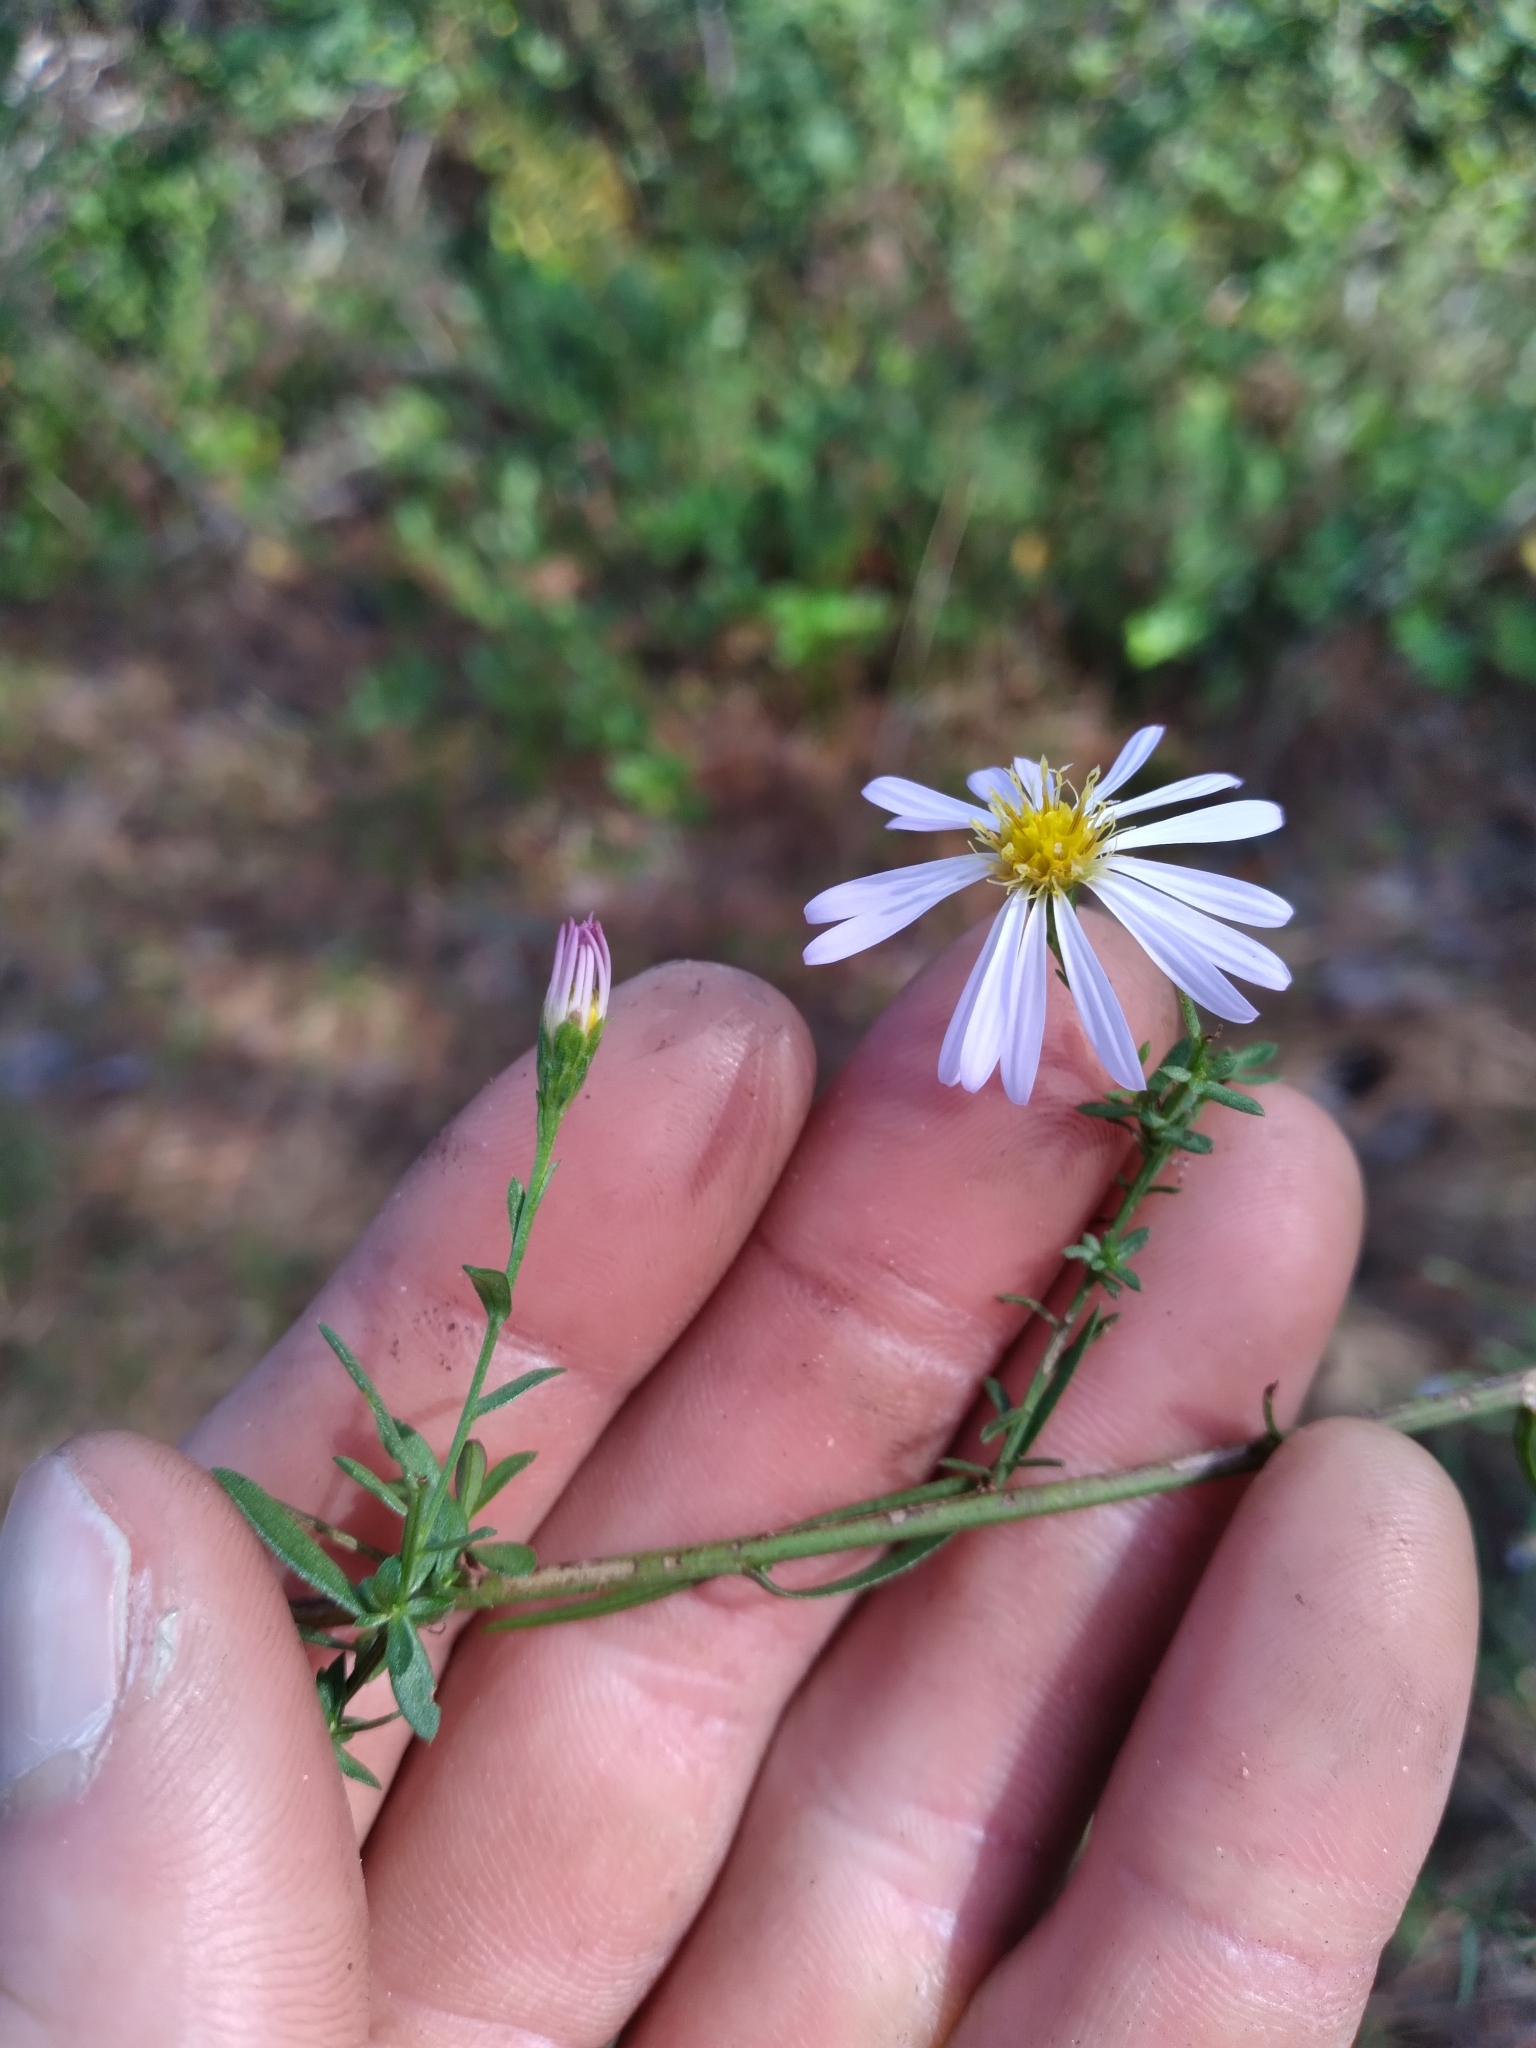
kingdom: Plantae
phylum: Tracheophyta
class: Magnoliopsida
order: Asterales
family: Asteraceae
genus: Symphyotrichum
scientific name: Symphyotrichum dumosum
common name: Bushy aster
